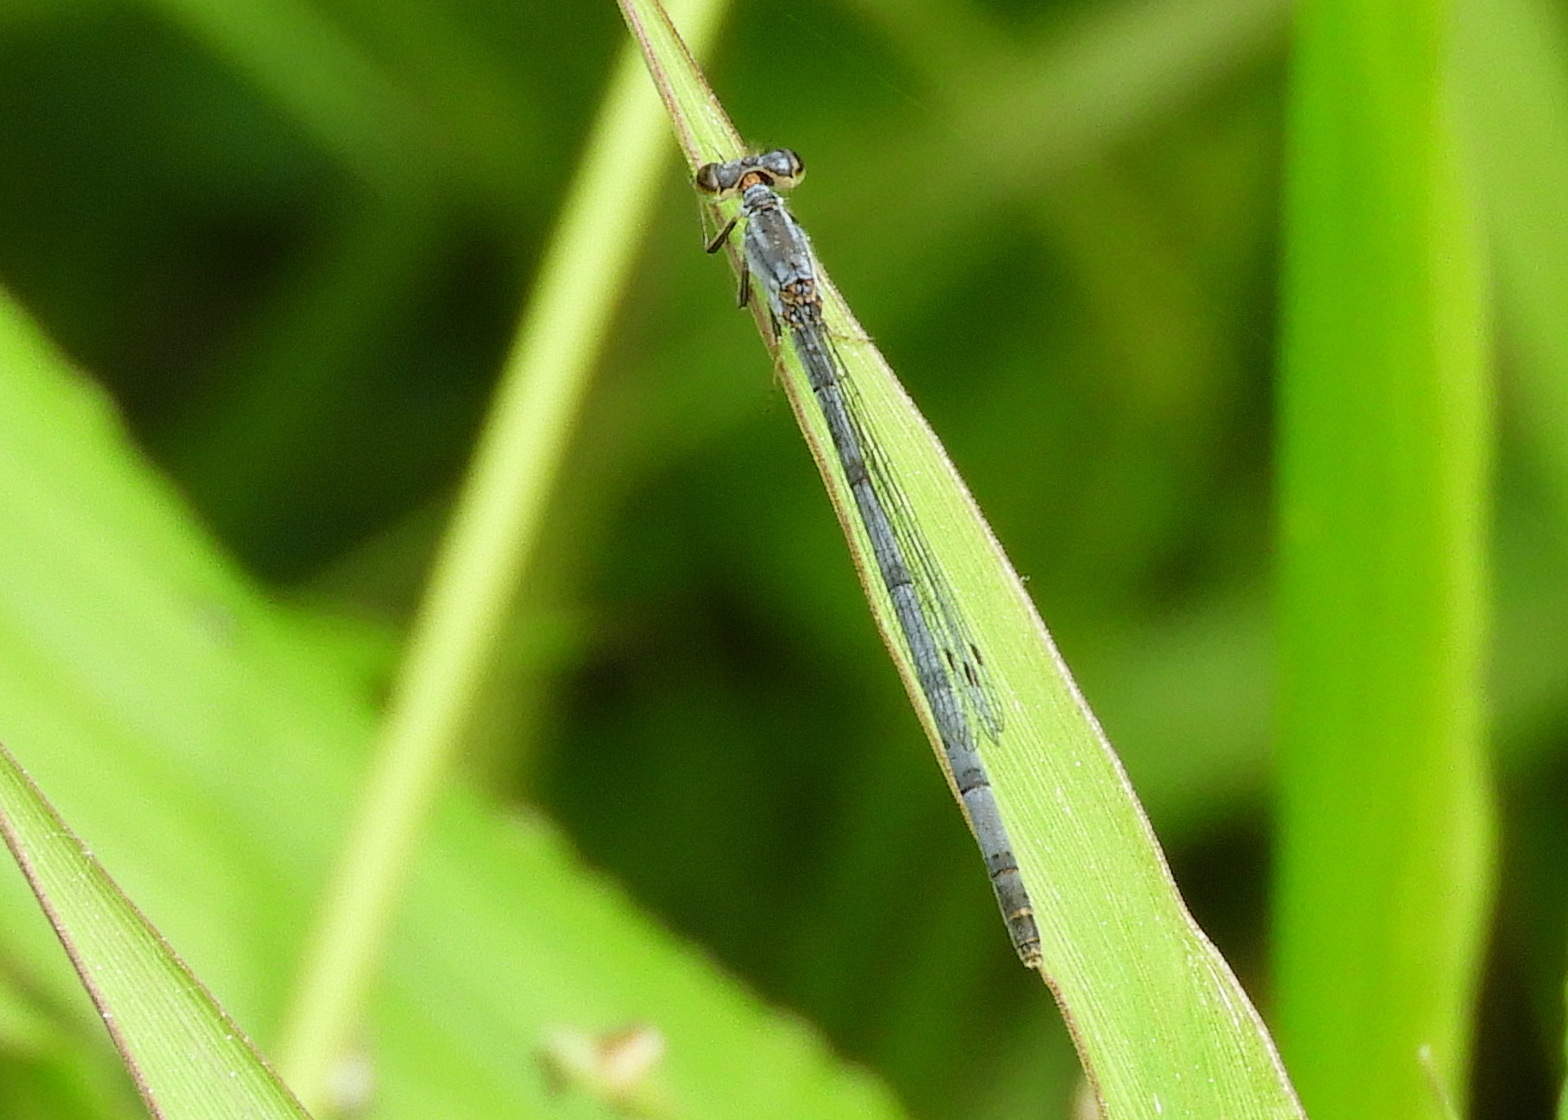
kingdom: Animalia
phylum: Arthropoda
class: Insecta
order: Odonata
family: Coenagrionidae
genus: Ischnura
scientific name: Ischnura posita
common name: Fragile forktail
